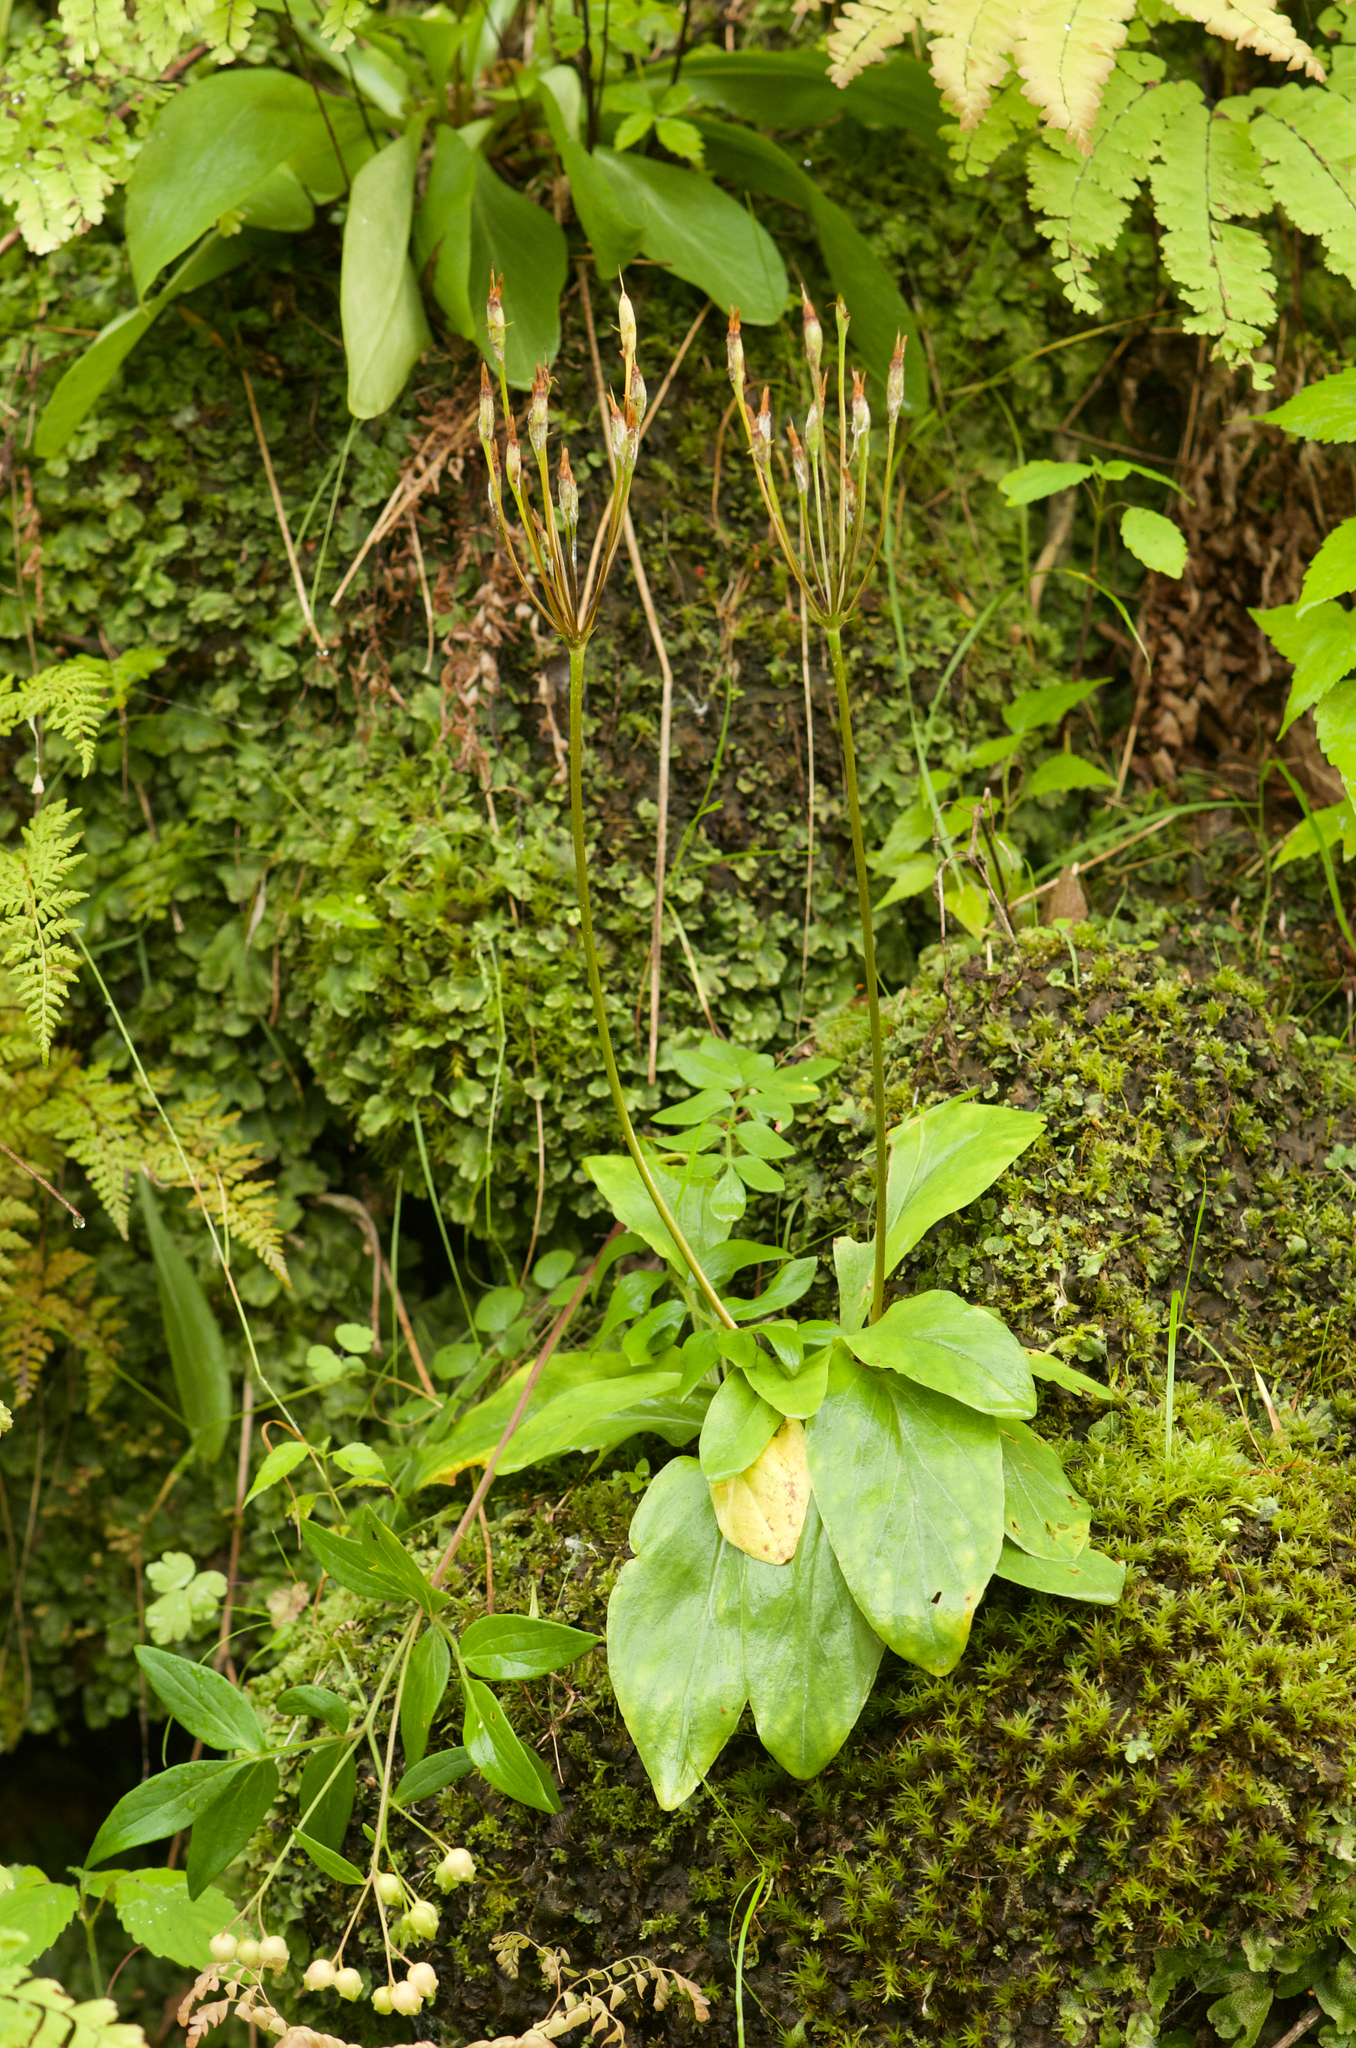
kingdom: Plantae
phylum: Tracheophyta
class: Magnoliopsida
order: Ericales
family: Primulaceae
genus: Dodecatheon
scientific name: Dodecatheon amethystinum
